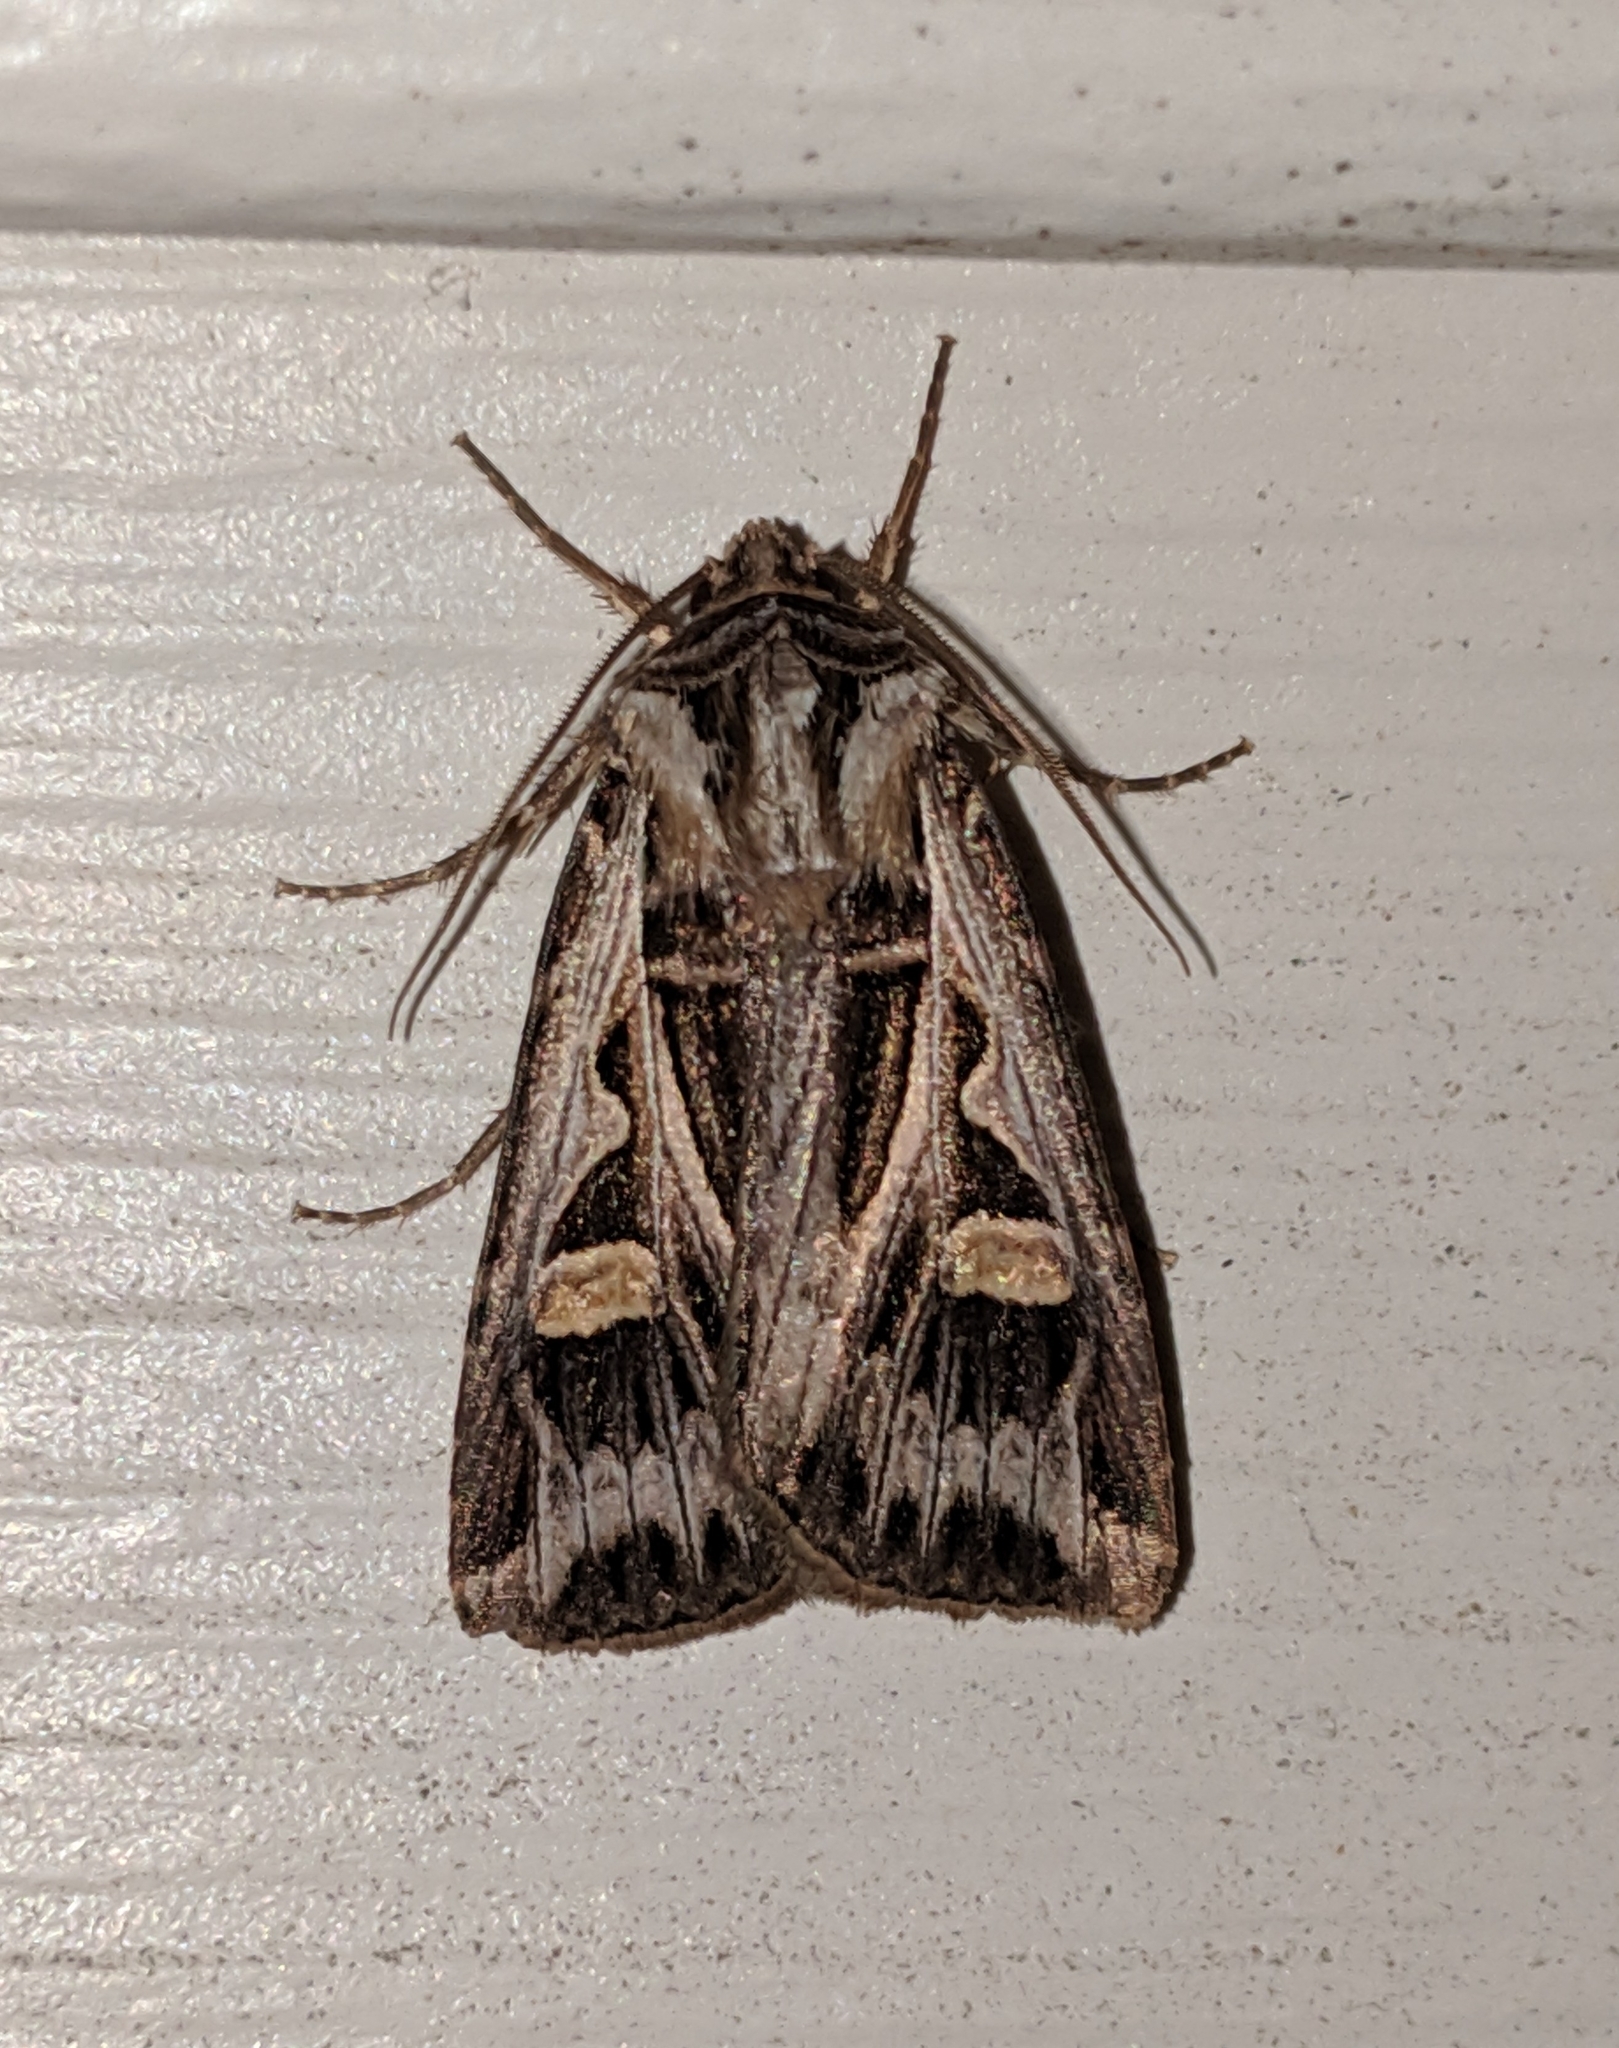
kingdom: Animalia
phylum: Arthropoda
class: Insecta
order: Lepidoptera
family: Noctuidae
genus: Feltia
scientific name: Feltia jaculifera
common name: Dingy cutworm moth
